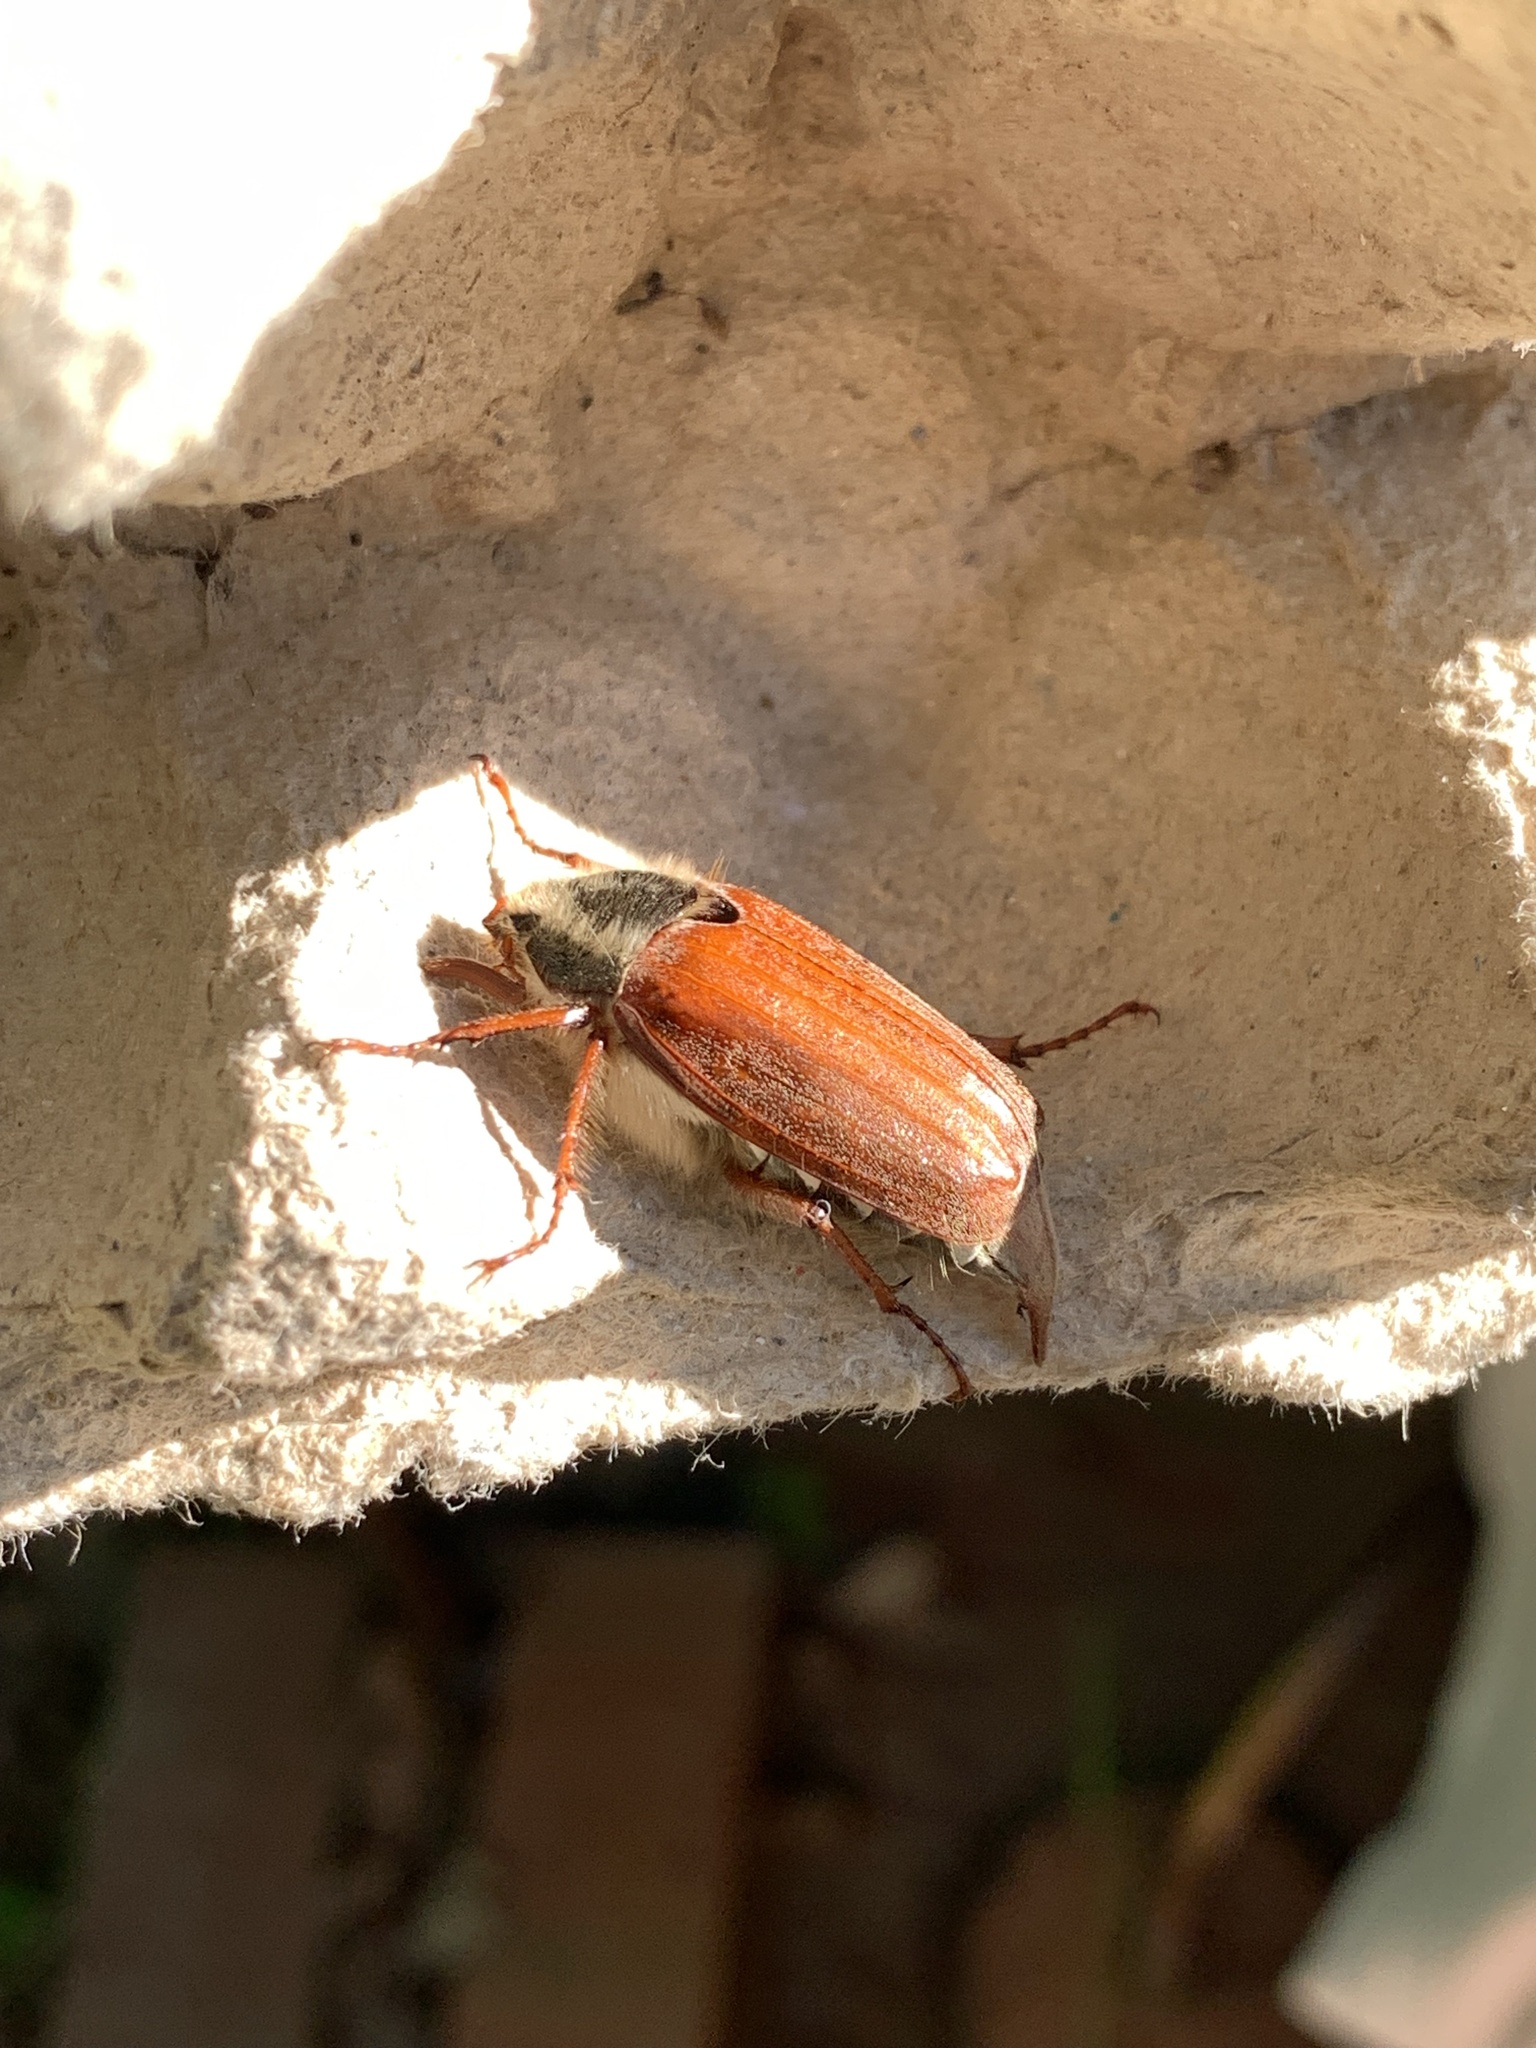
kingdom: Animalia
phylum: Arthropoda
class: Insecta
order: Coleoptera
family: Scarabaeidae
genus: Melolontha
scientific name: Melolontha melolontha
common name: Cockchafer maybeetle
